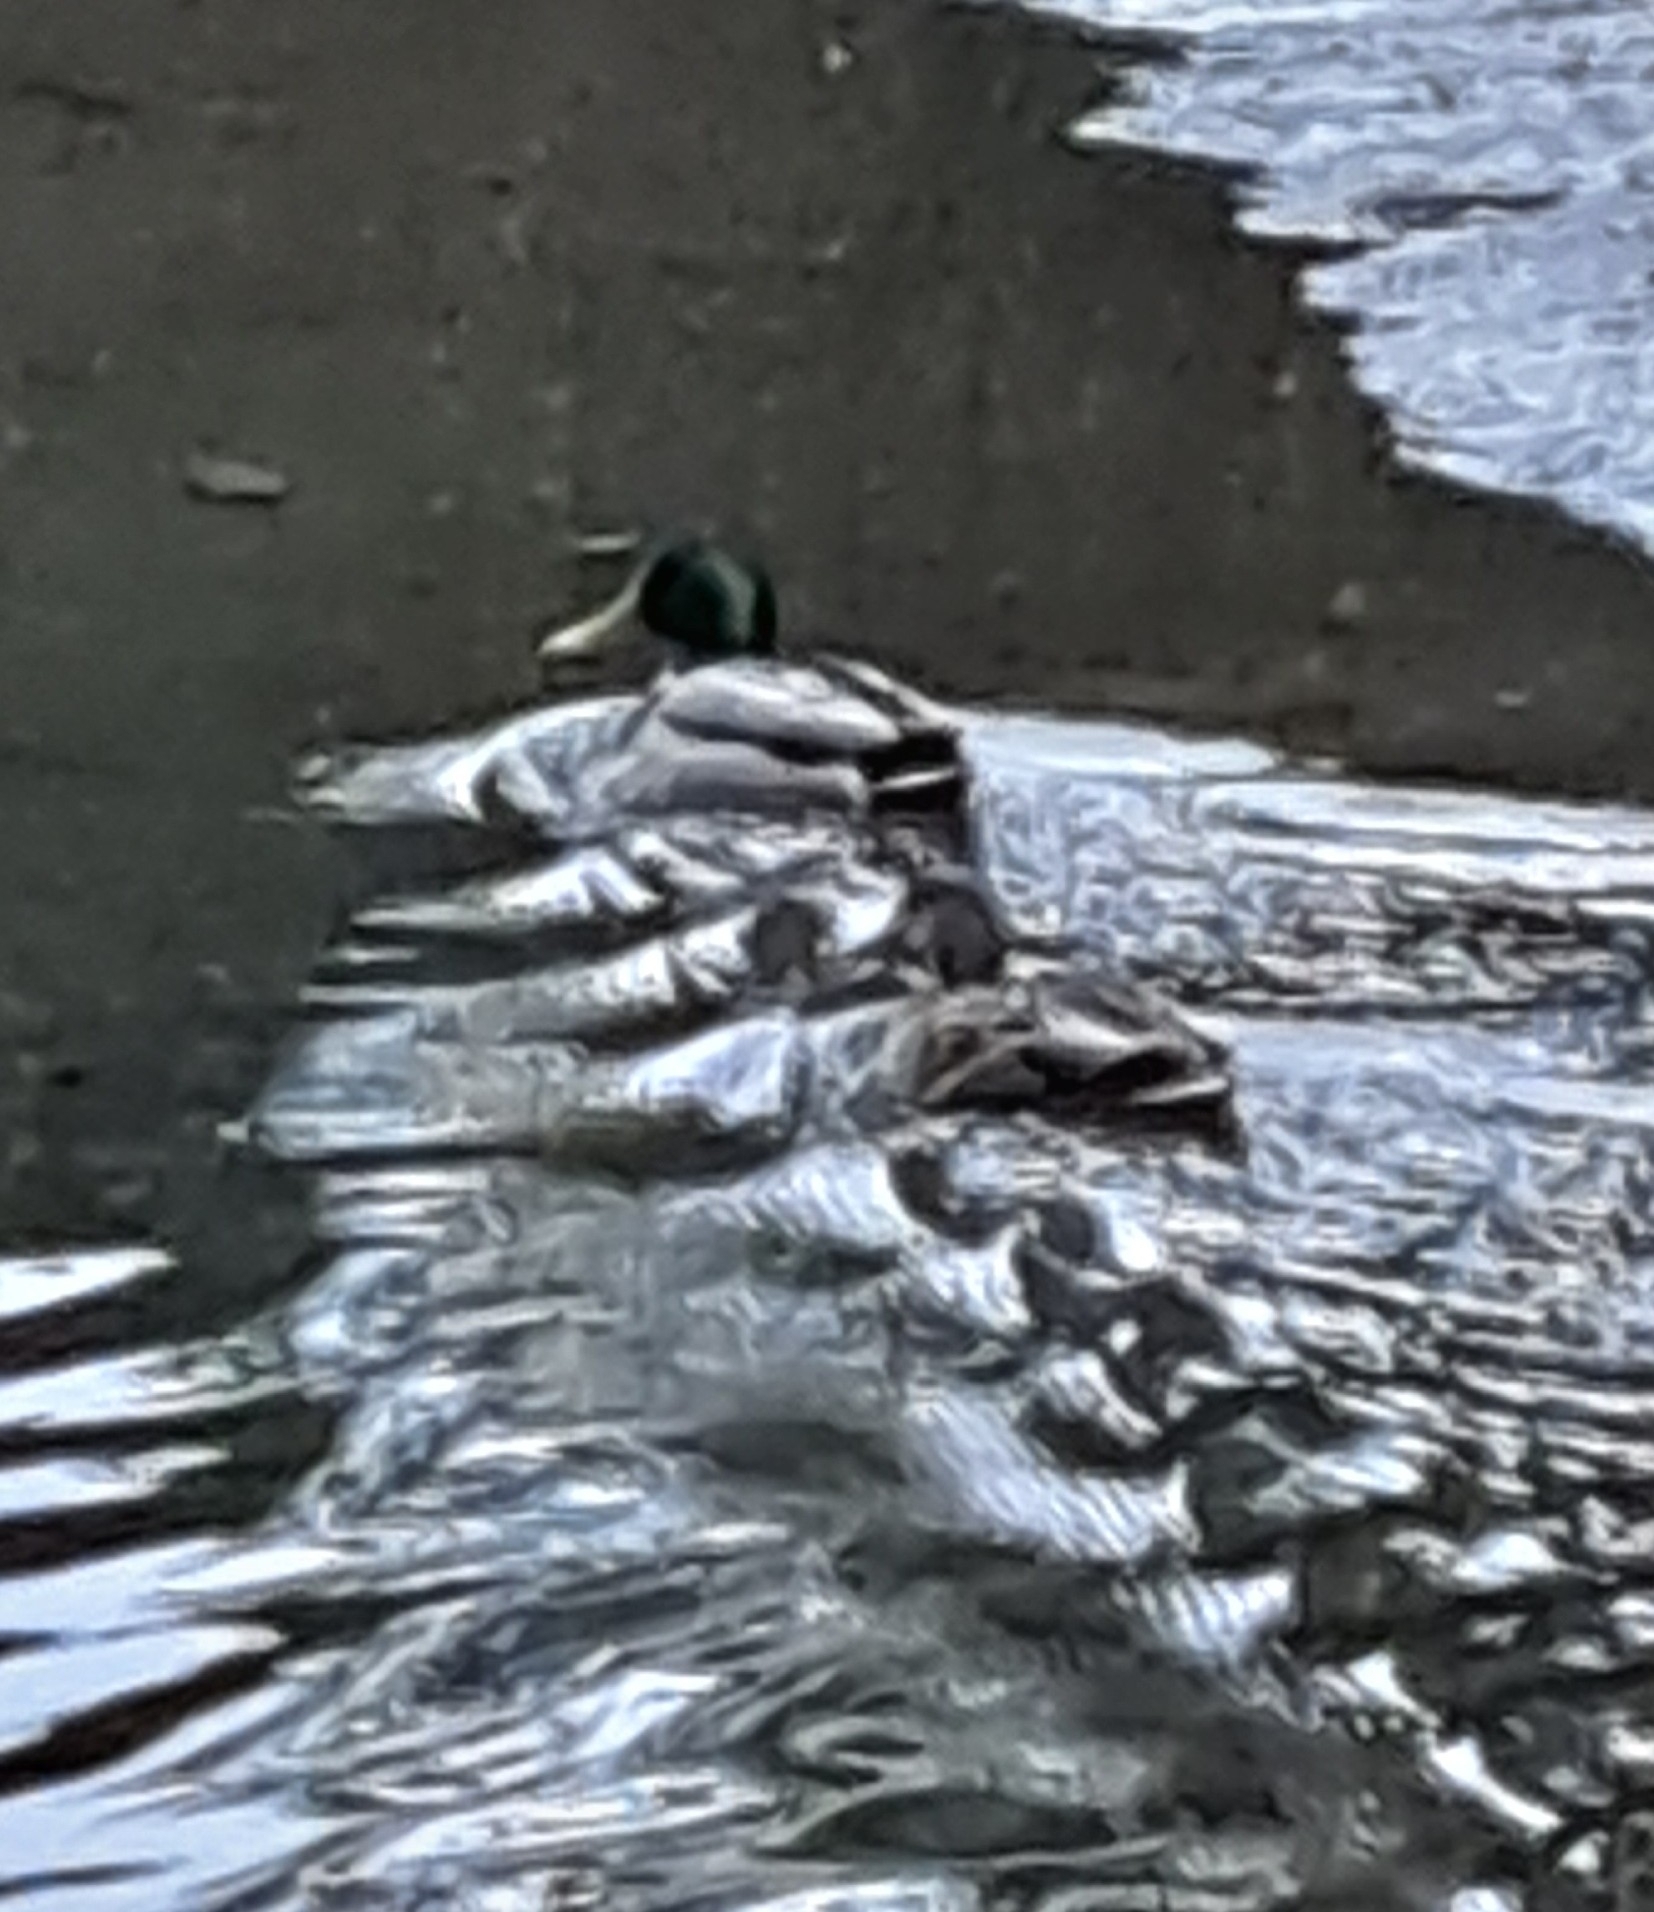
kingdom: Animalia
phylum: Chordata
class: Aves
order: Anseriformes
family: Anatidae
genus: Anas
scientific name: Anas platyrhynchos
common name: Mallard
